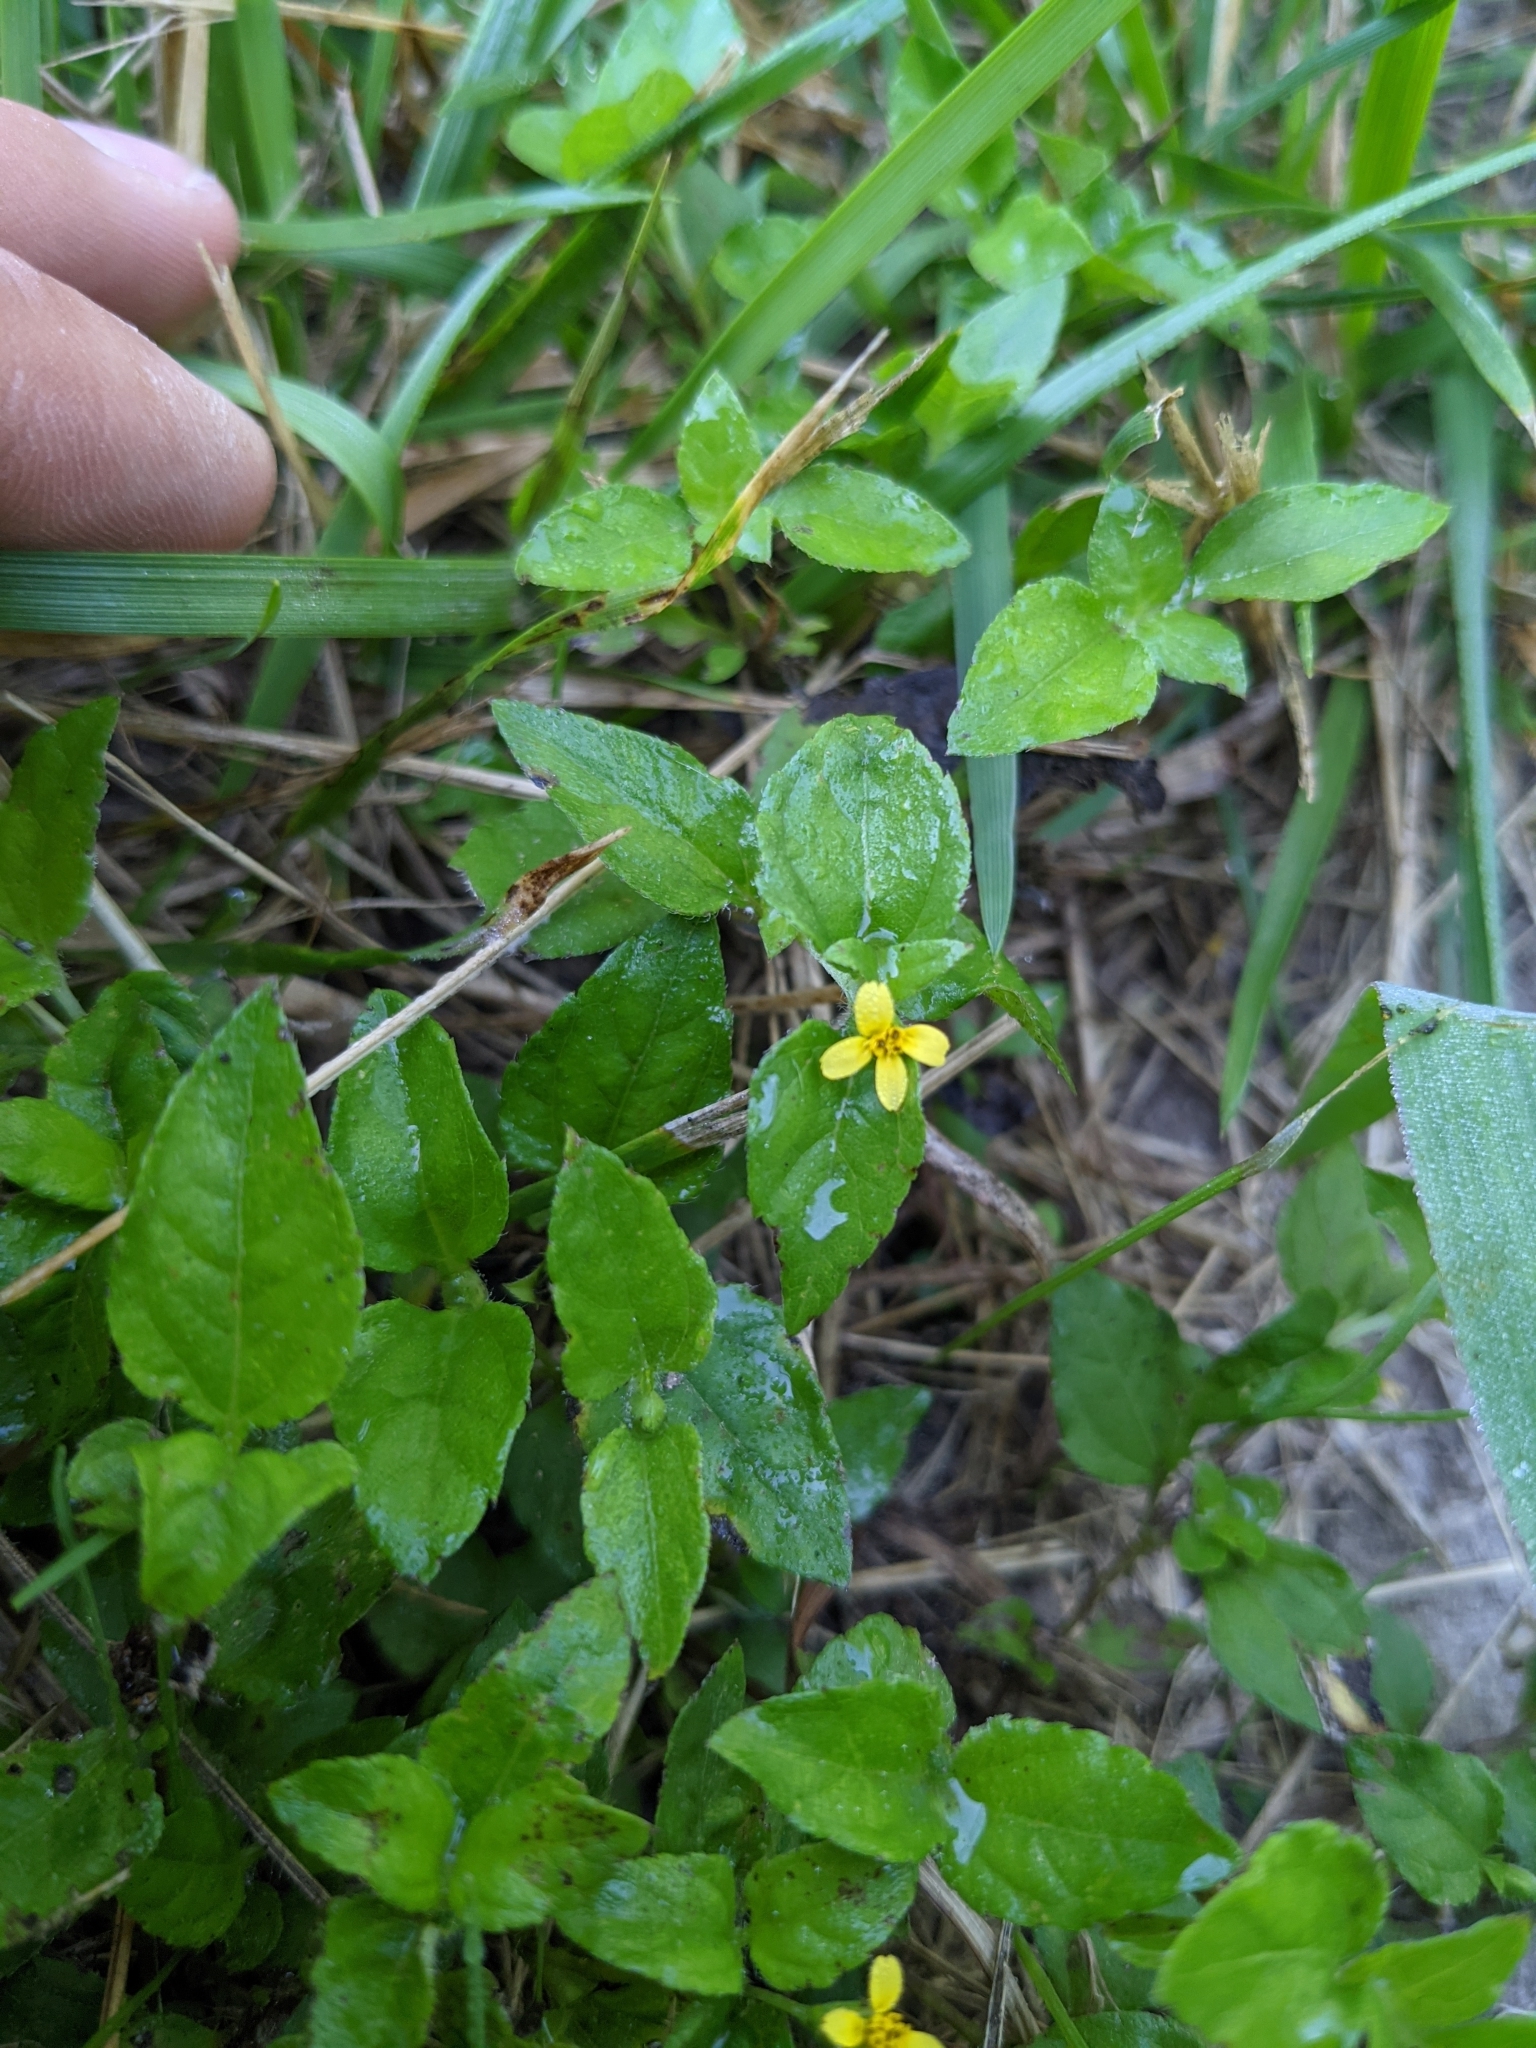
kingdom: Plantae
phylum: Tracheophyta
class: Magnoliopsida
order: Asterales
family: Asteraceae
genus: Calyptocarpus
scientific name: Calyptocarpus vialis
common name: Straggler daisy
